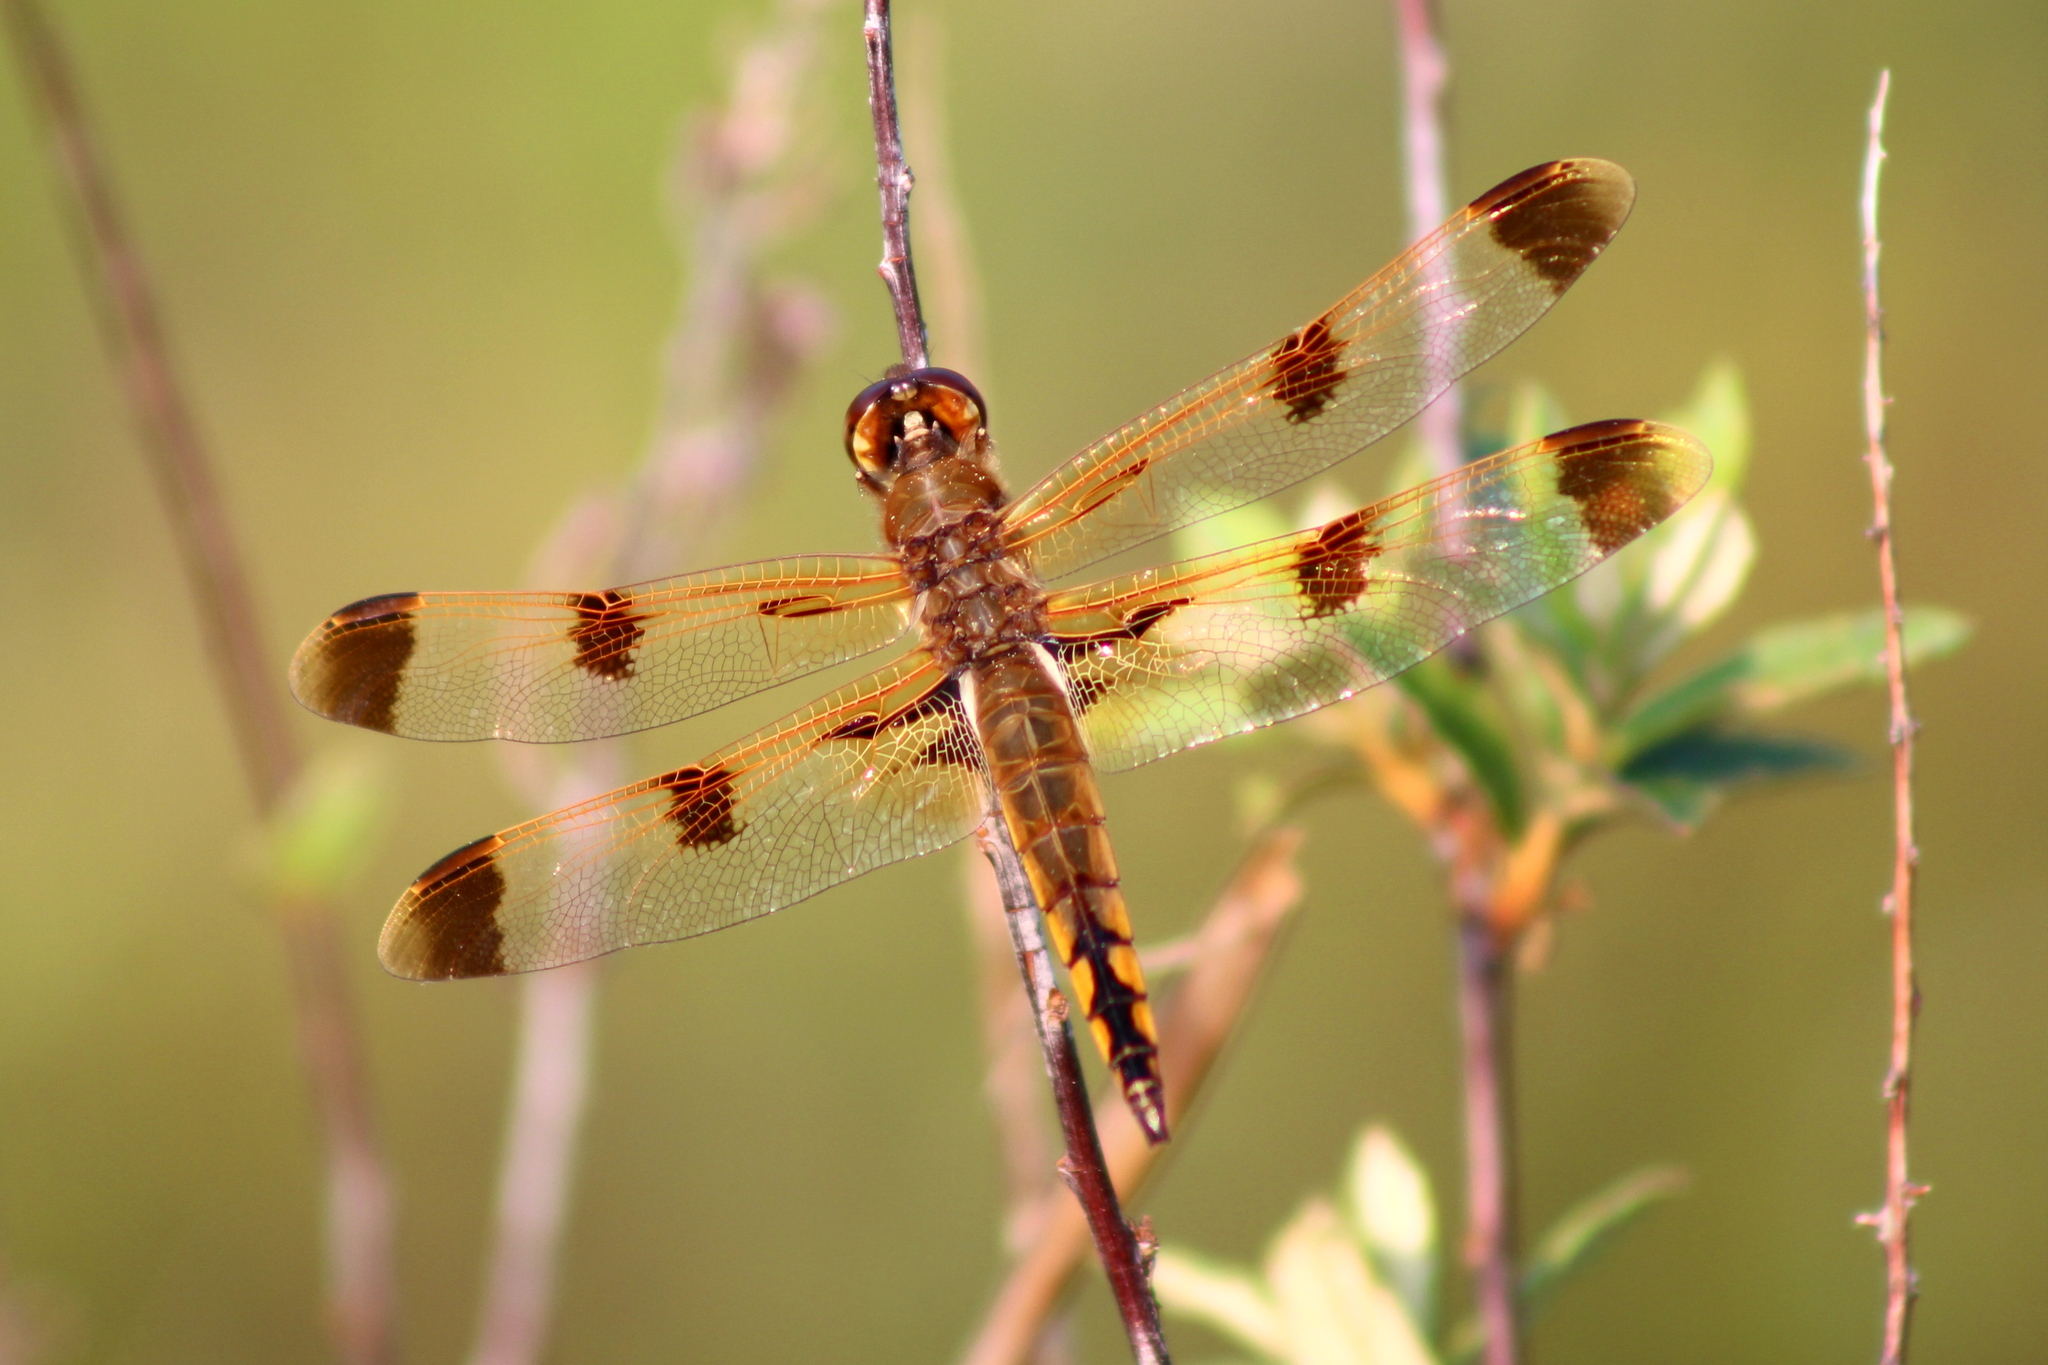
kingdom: Animalia
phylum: Arthropoda
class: Insecta
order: Odonata
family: Libellulidae
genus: Libellula
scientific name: Libellula semifasciata
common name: Painted skimmer
